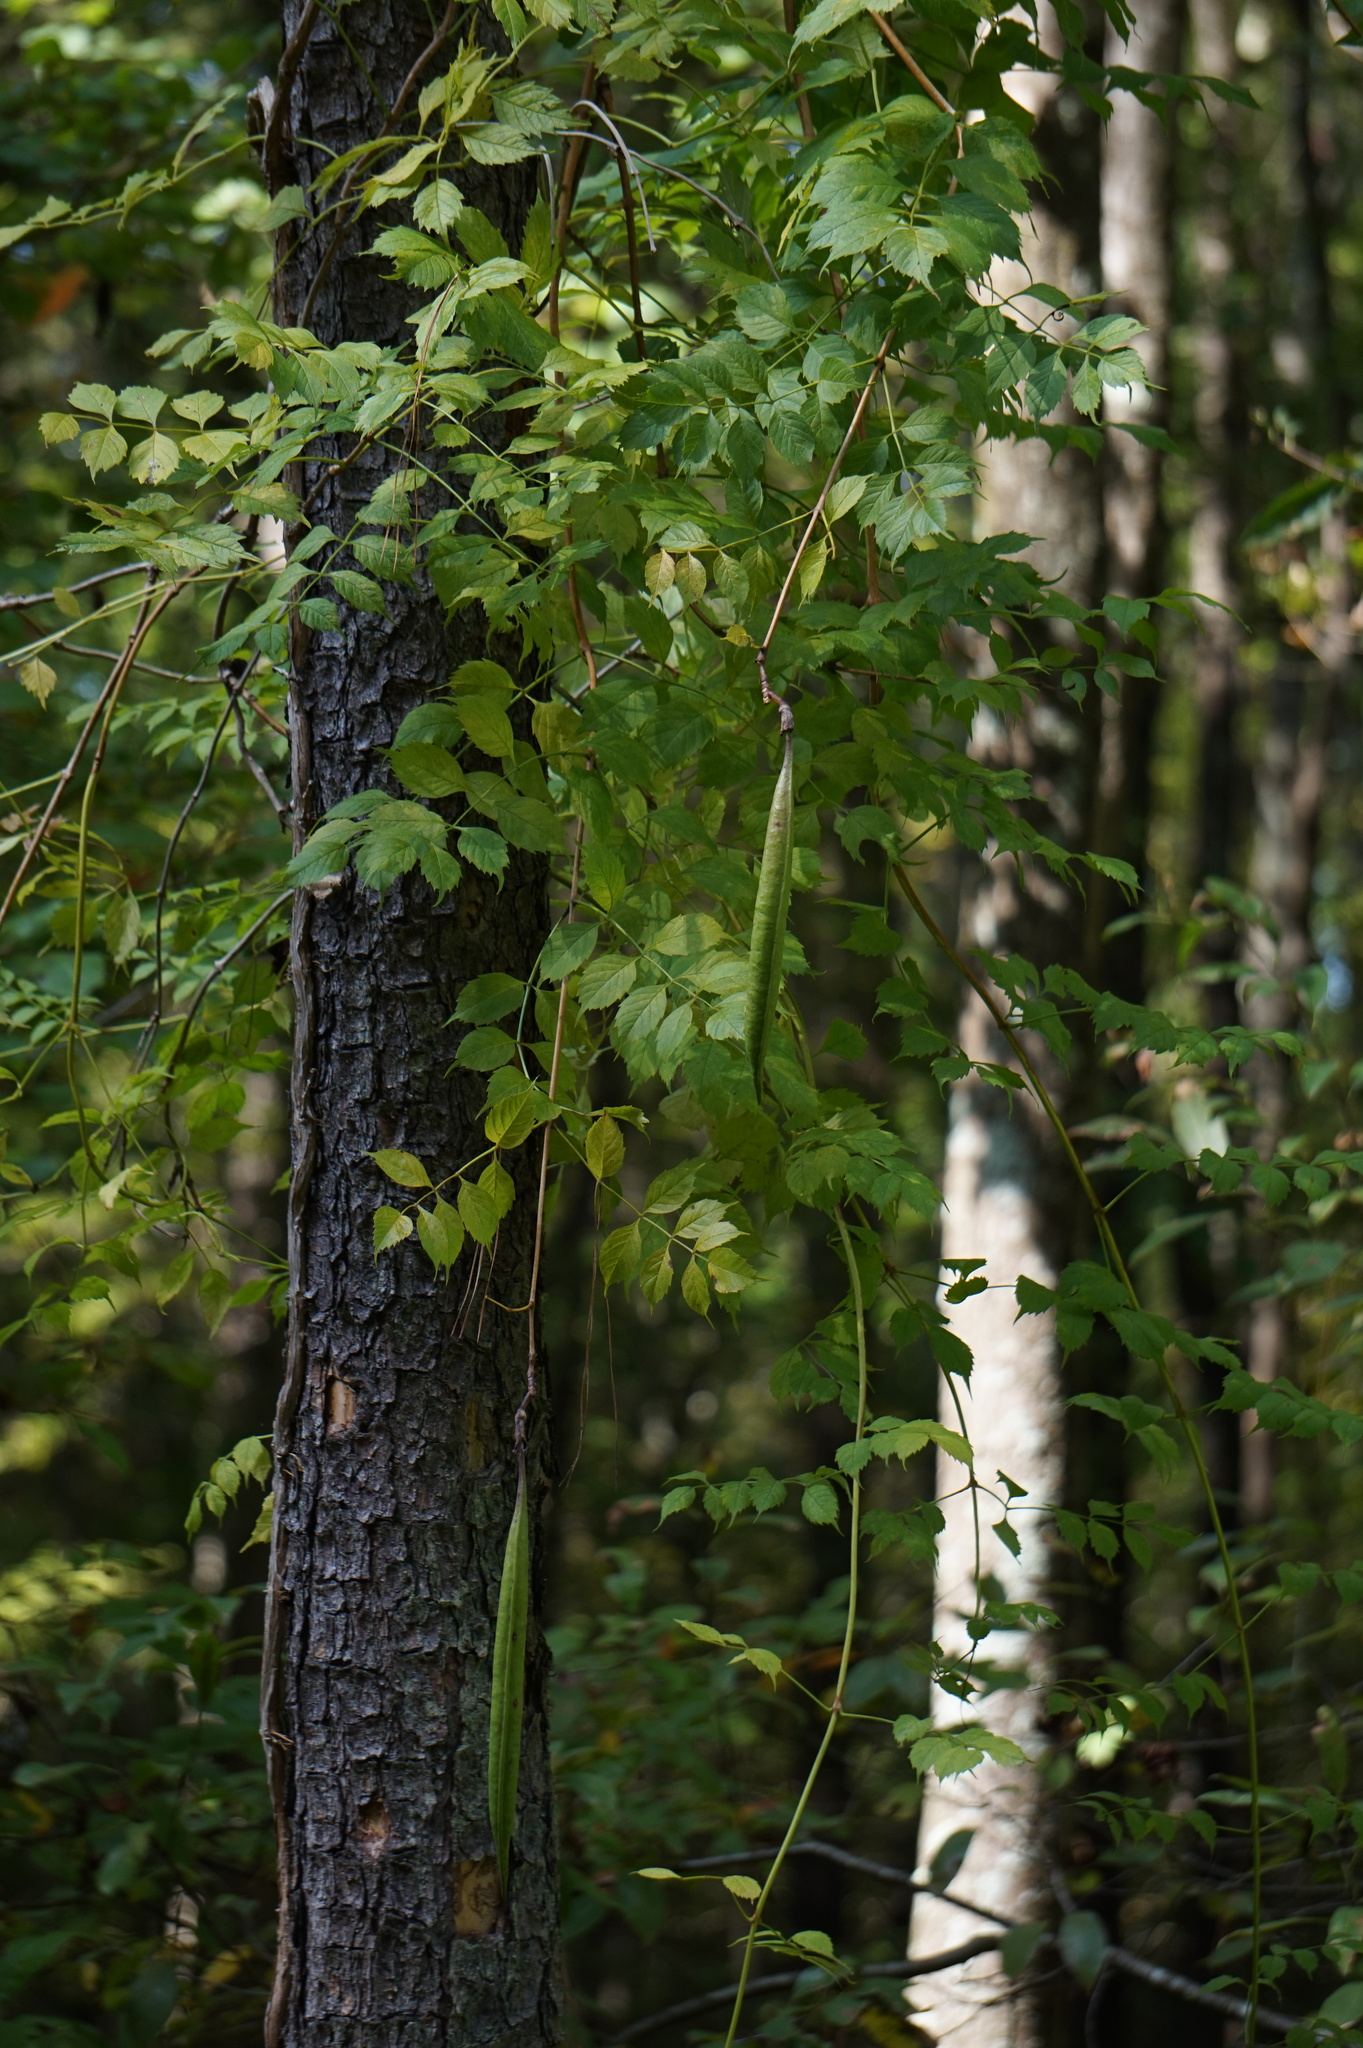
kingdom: Plantae
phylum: Tracheophyta
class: Magnoliopsida
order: Lamiales
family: Bignoniaceae
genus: Campsis
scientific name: Campsis radicans
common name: Trumpet-creeper
